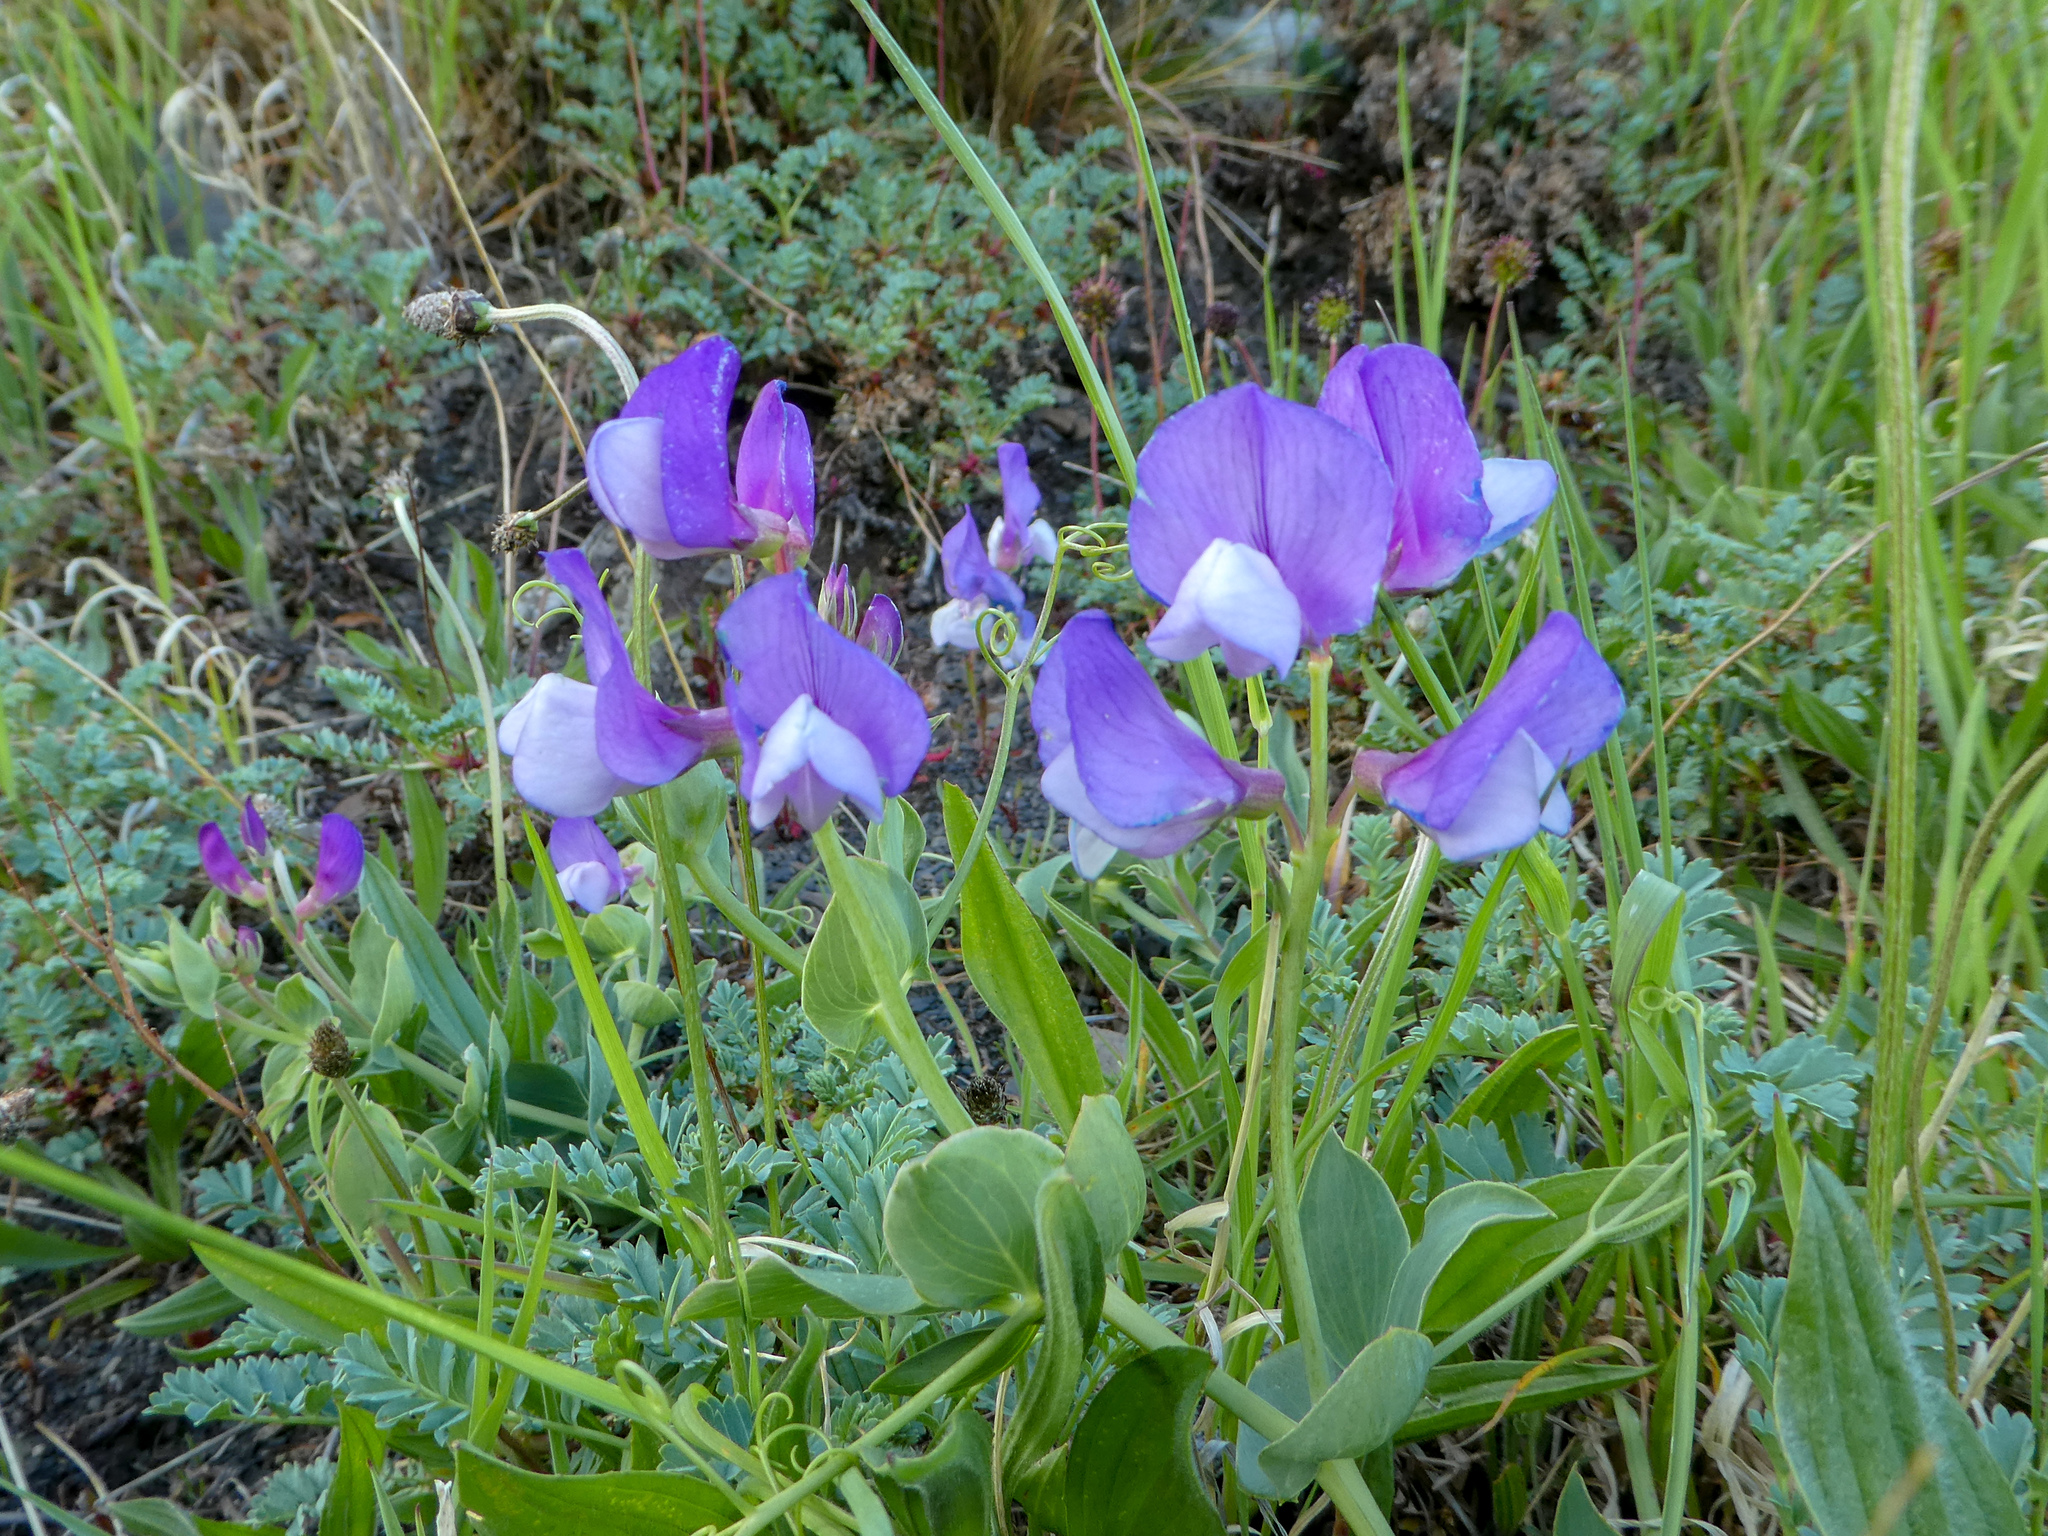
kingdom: Plantae
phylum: Tracheophyta
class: Magnoliopsida
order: Fabales
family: Fabaceae
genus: Lathyrus
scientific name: Lathyrus magellanicus
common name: Lord anson's pea
